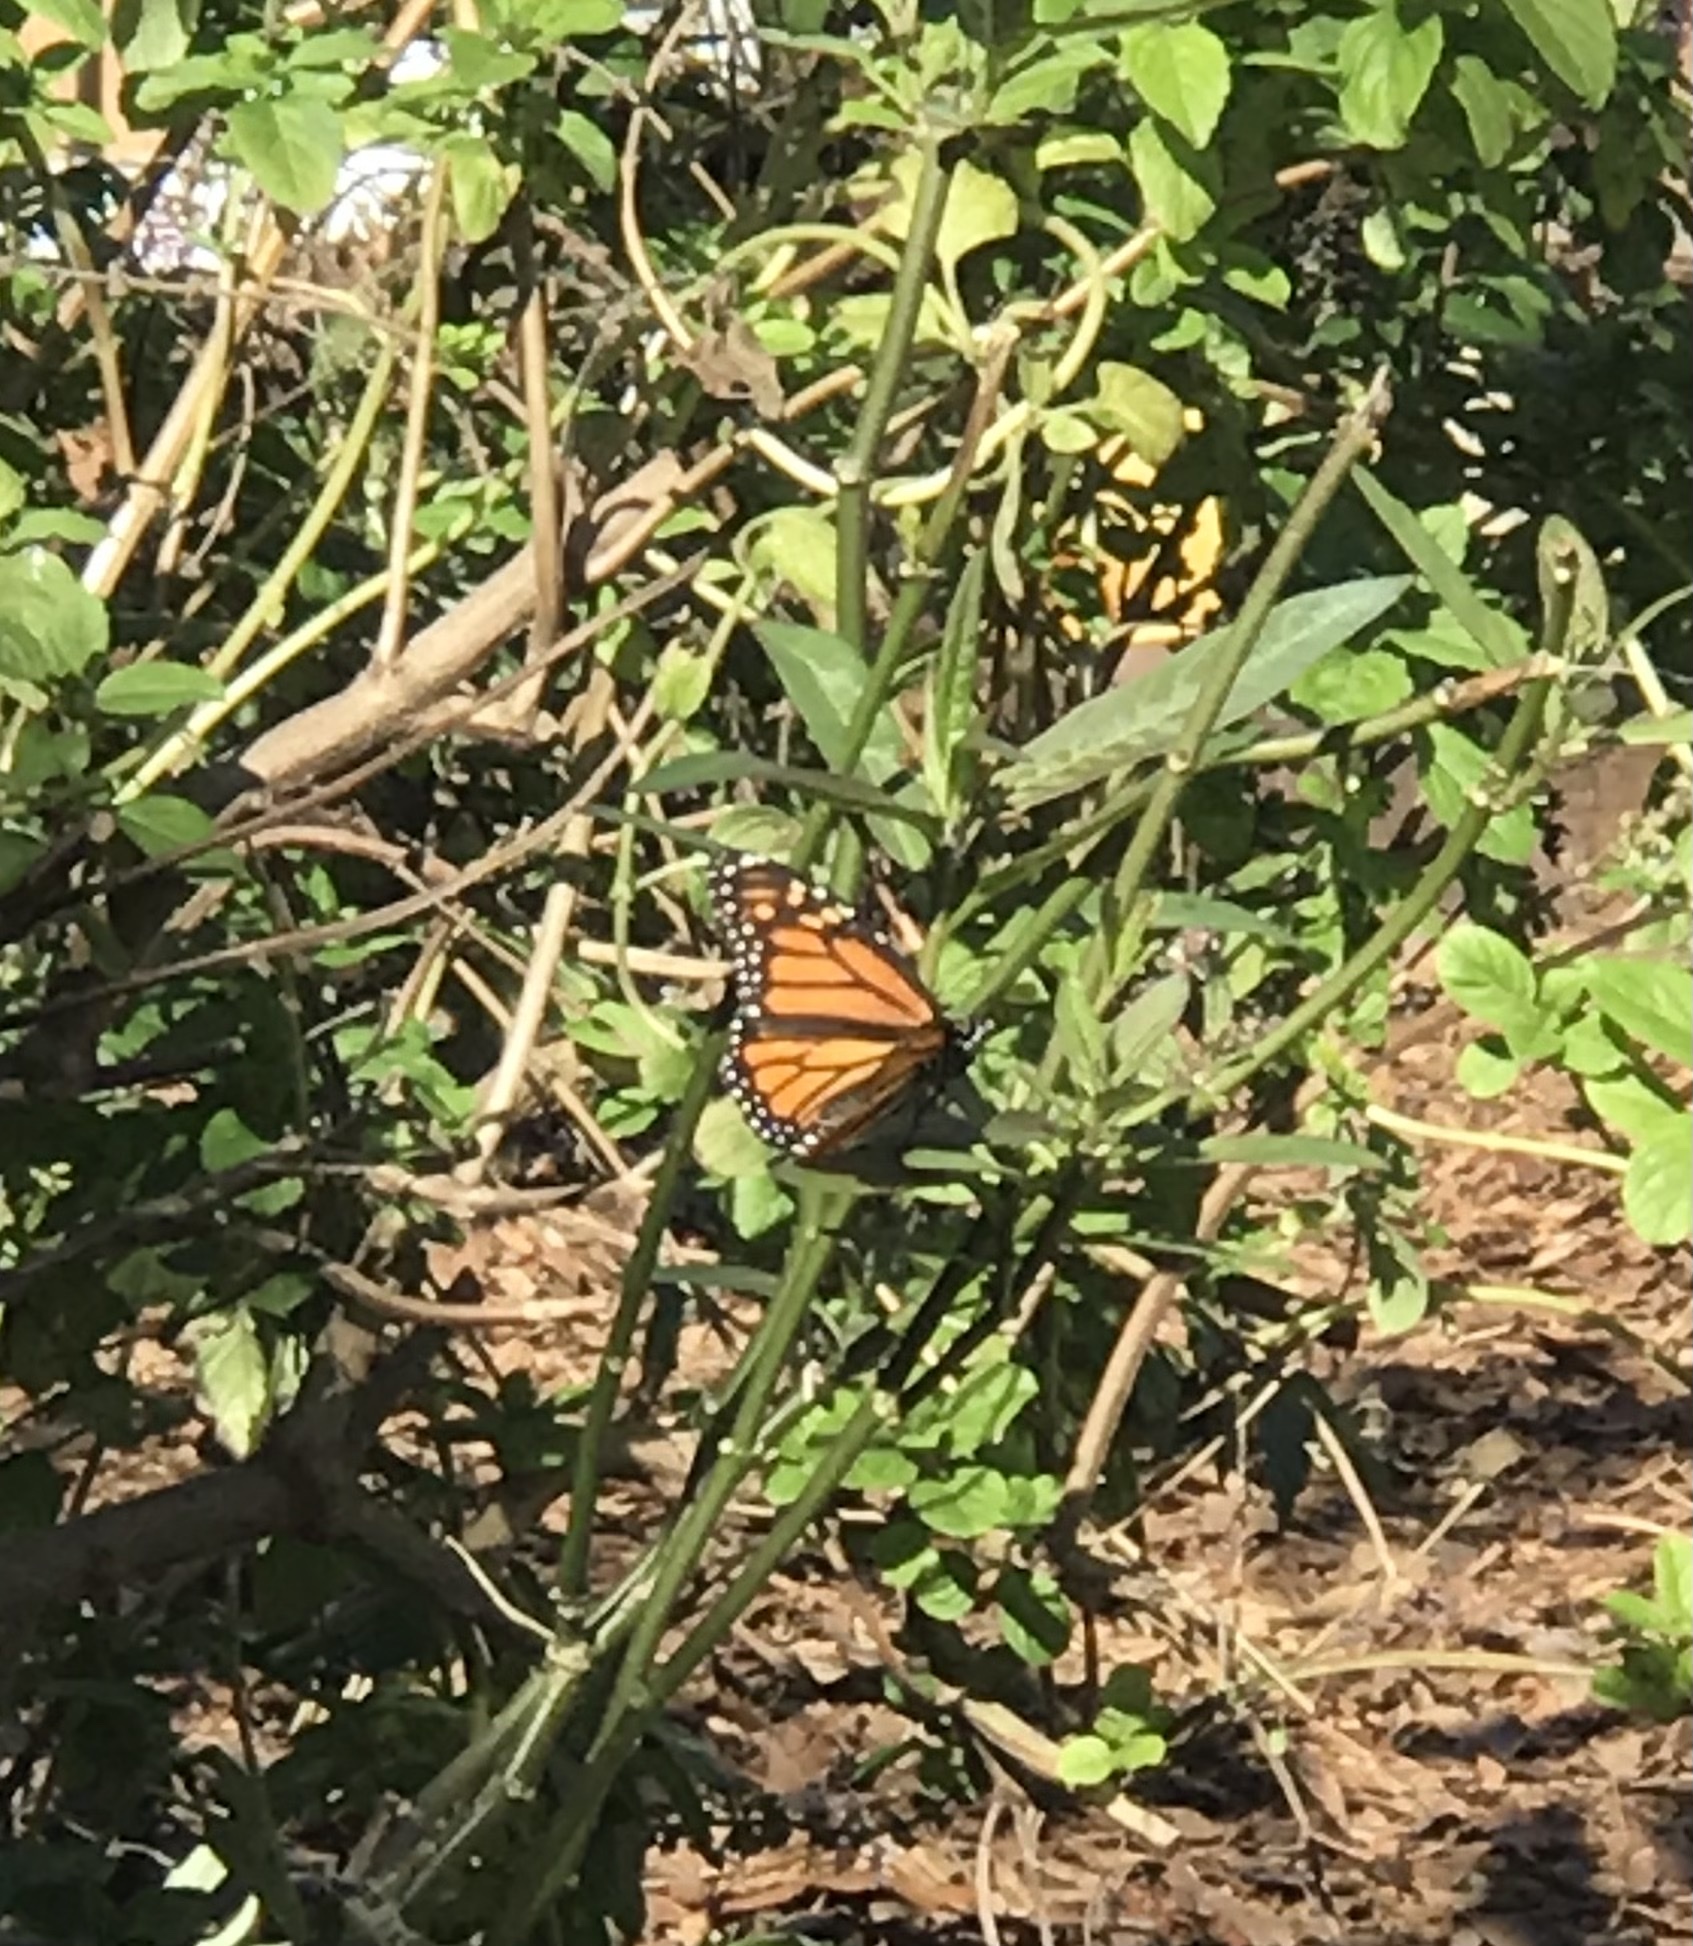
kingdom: Animalia
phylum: Arthropoda
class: Insecta
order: Lepidoptera
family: Nymphalidae
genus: Danaus
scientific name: Danaus plexippus
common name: Monarch
